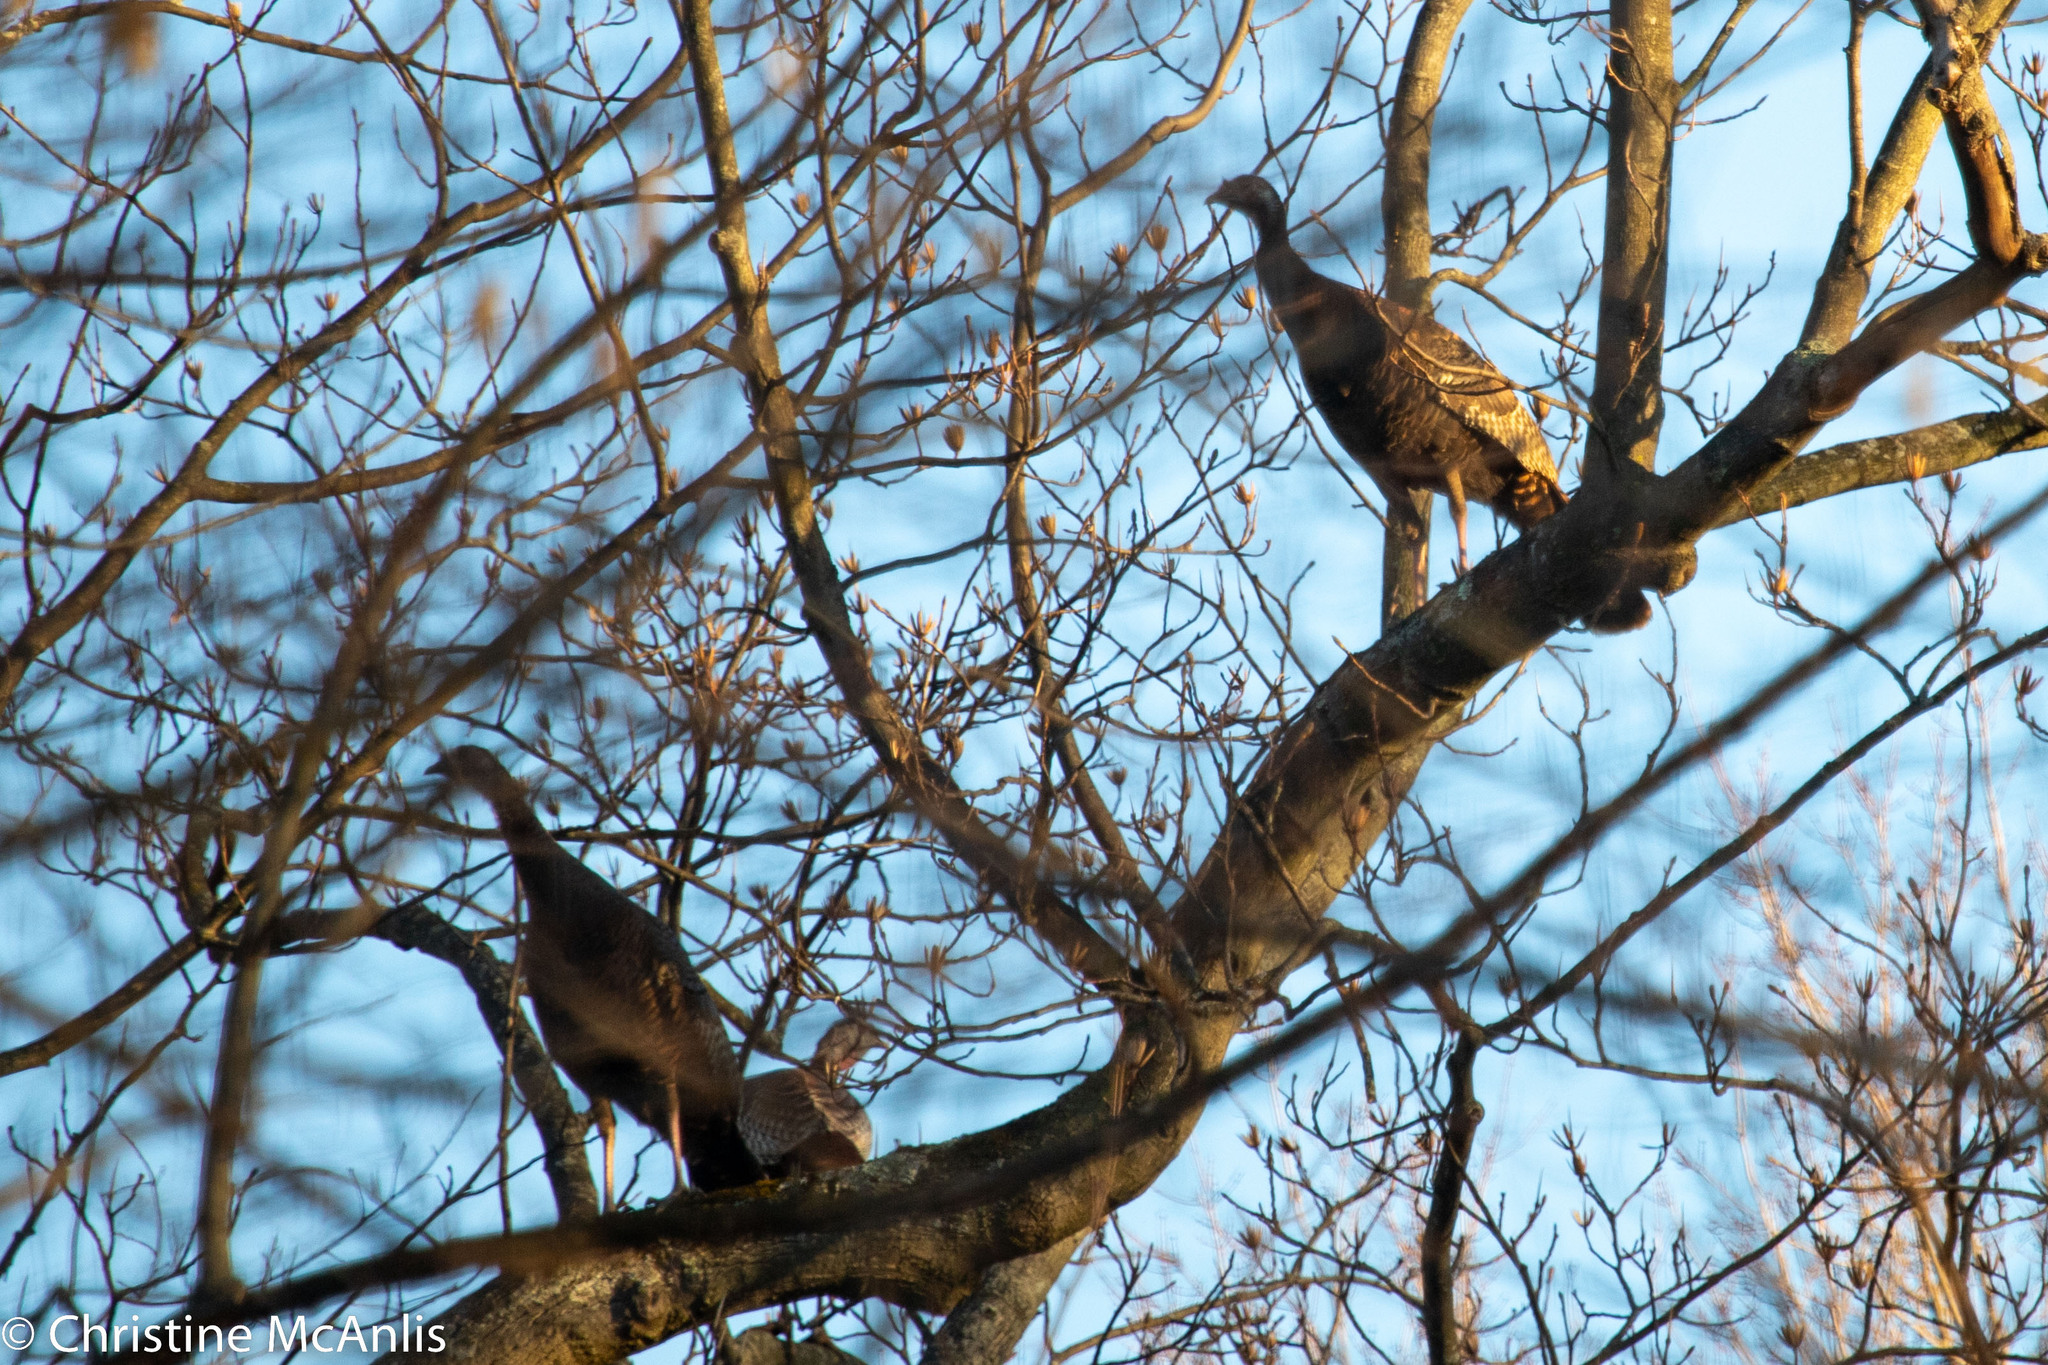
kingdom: Animalia
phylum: Chordata
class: Aves
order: Galliformes
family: Phasianidae
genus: Meleagris
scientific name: Meleagris gallopavo
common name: Wild turkey
